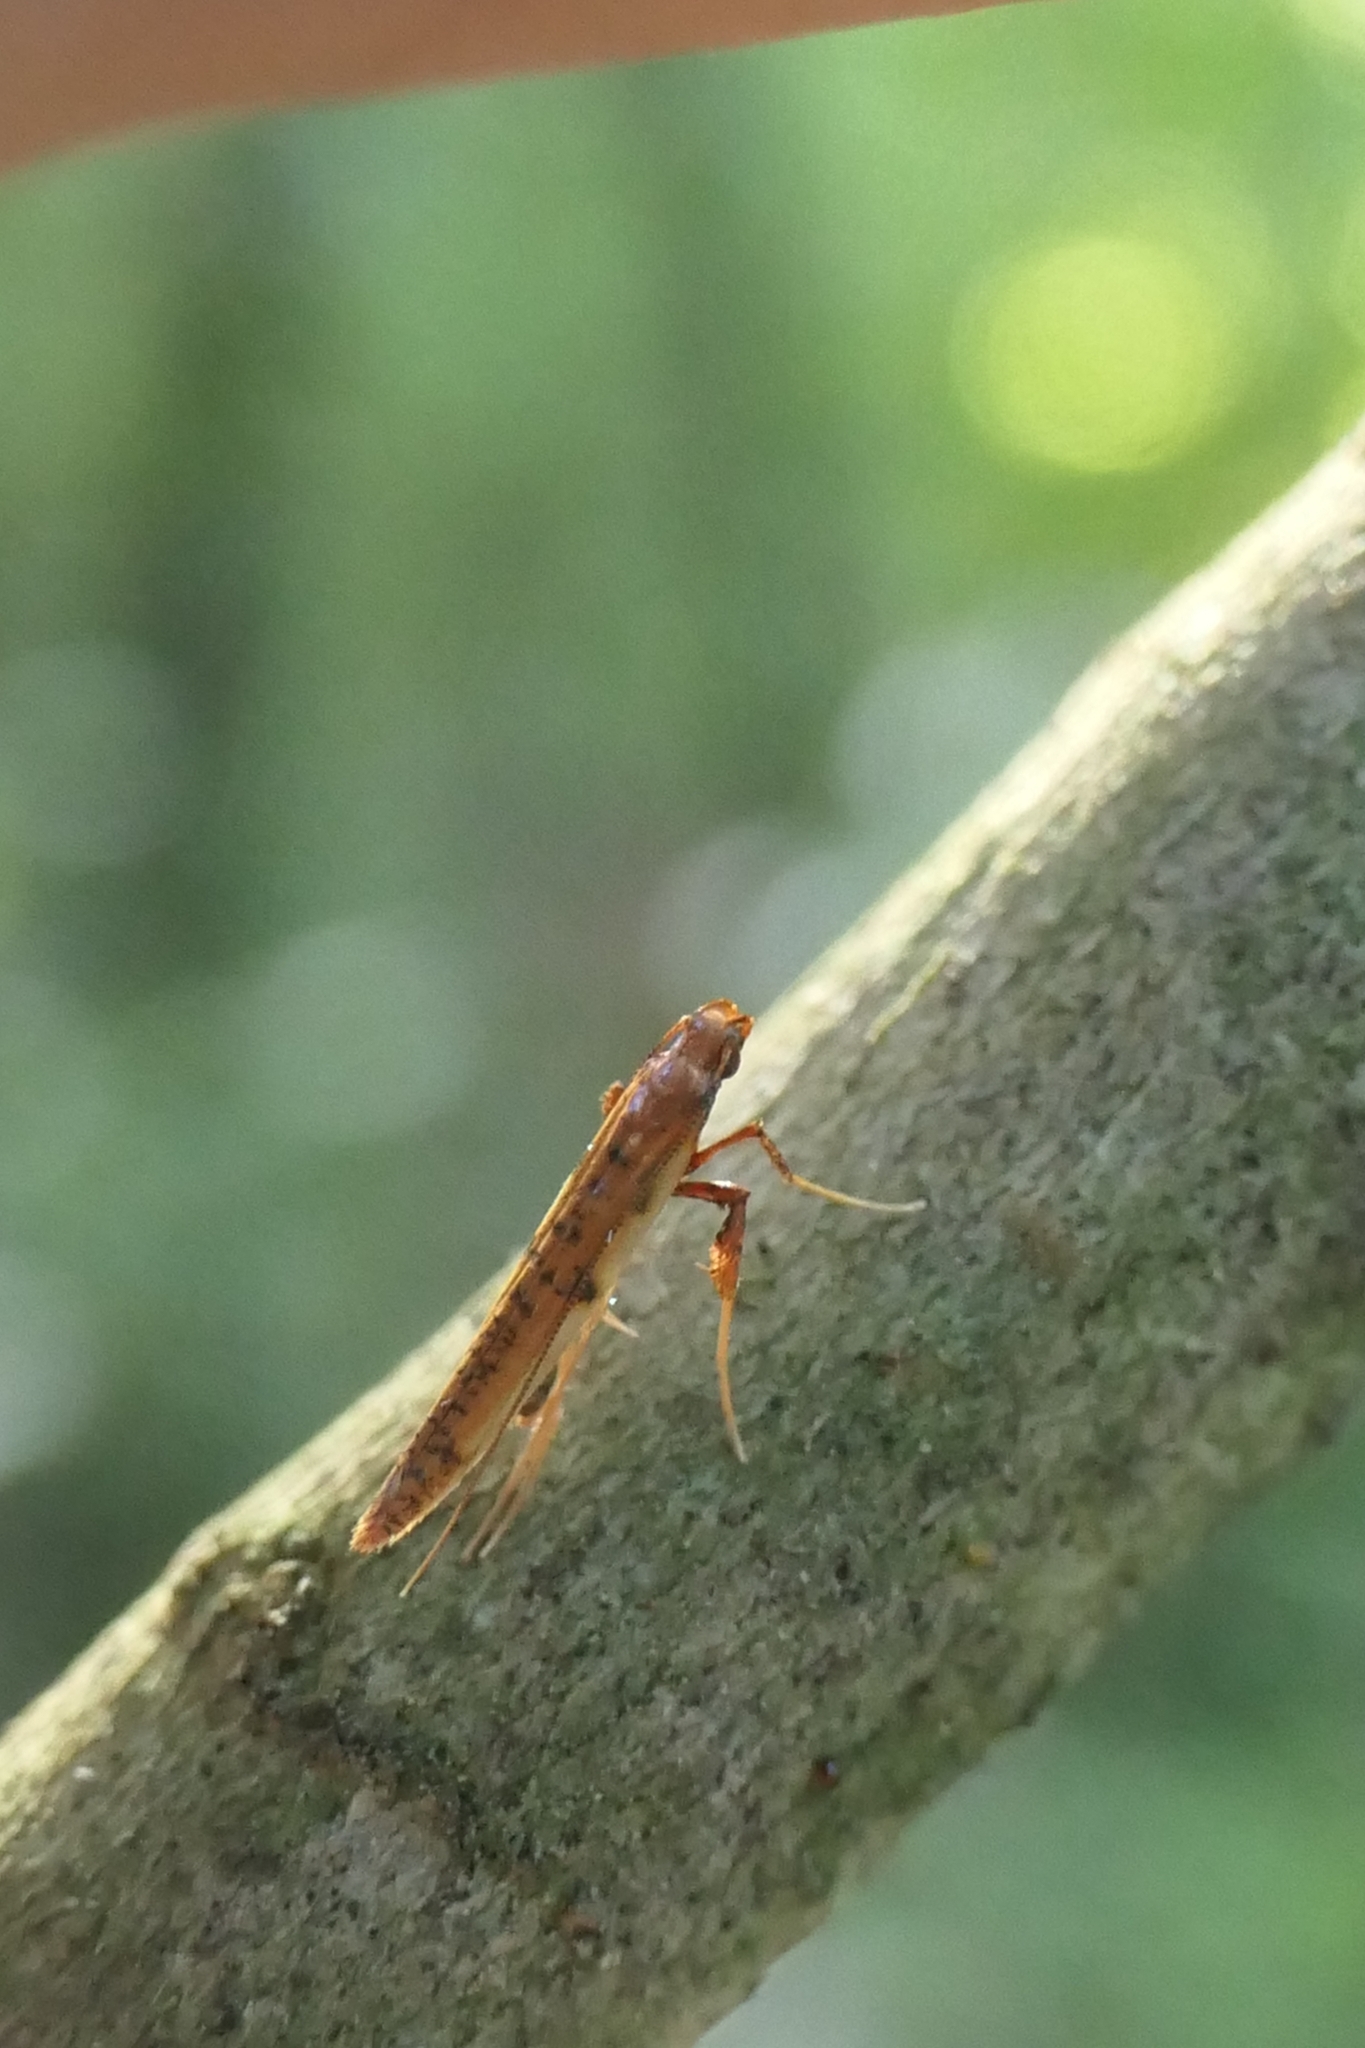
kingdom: Animalia
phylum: Arthropoda
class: Insecta
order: Lepidoptera
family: Gracillariidae
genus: Caloptilia
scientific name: Caloptilia chrysitis
